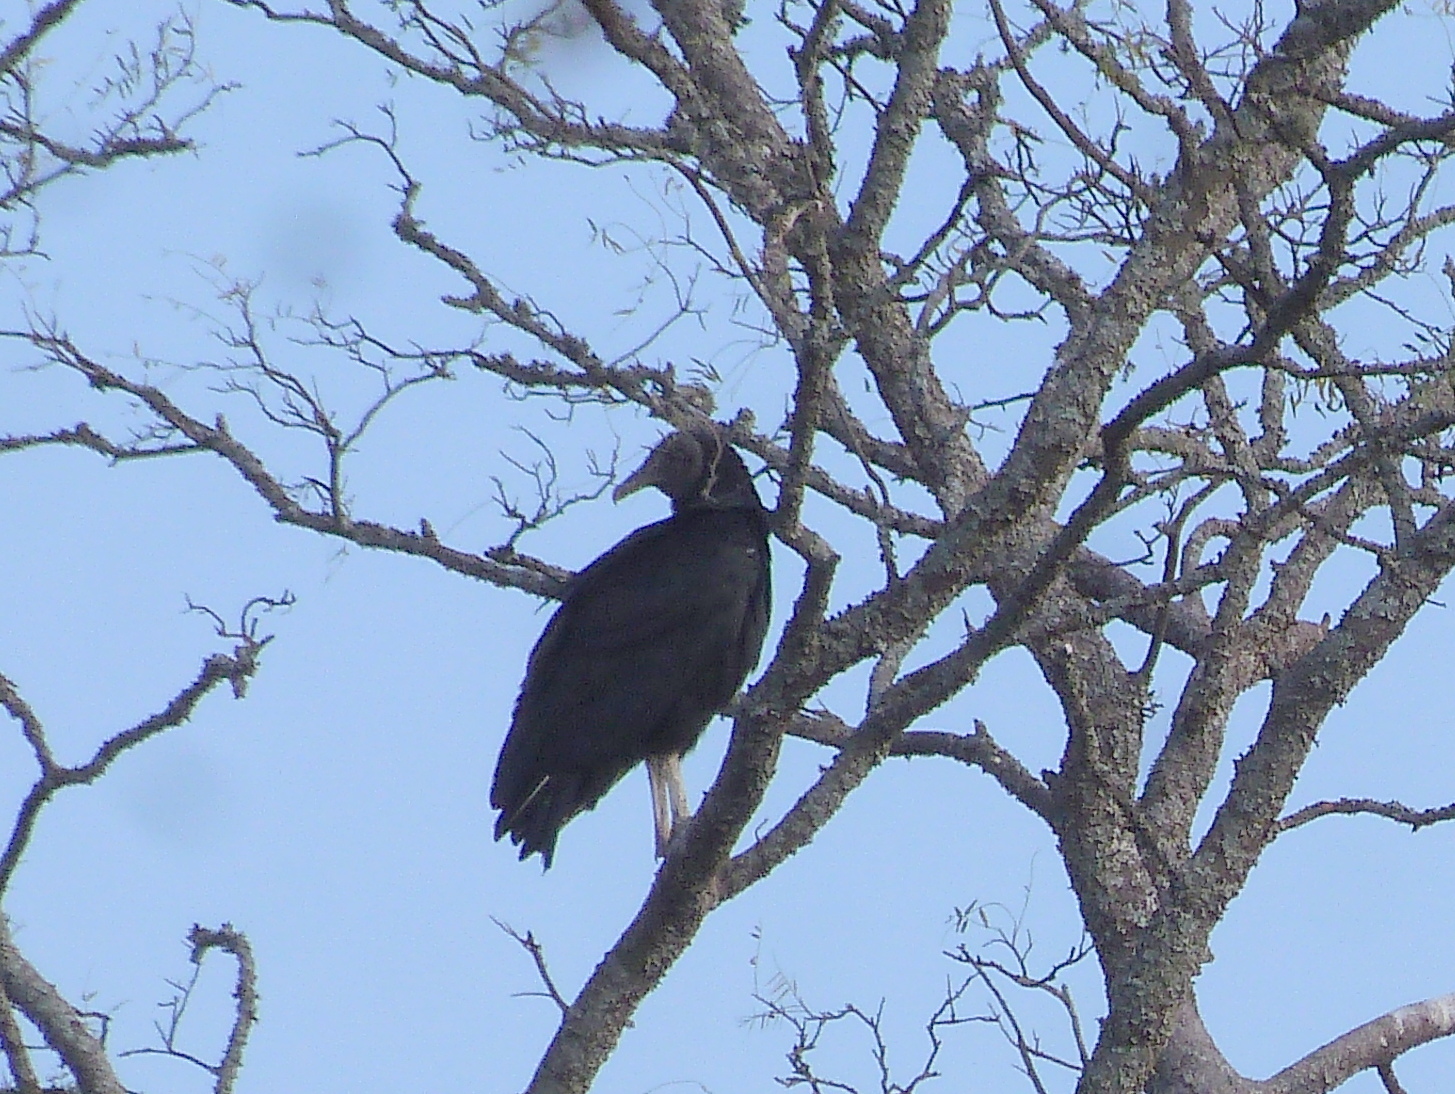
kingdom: Animalia
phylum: Chordata
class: Aves
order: Accipitriformes
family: Cathartidae
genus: Coragyps
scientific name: Coragyps atratus
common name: Black vulture
